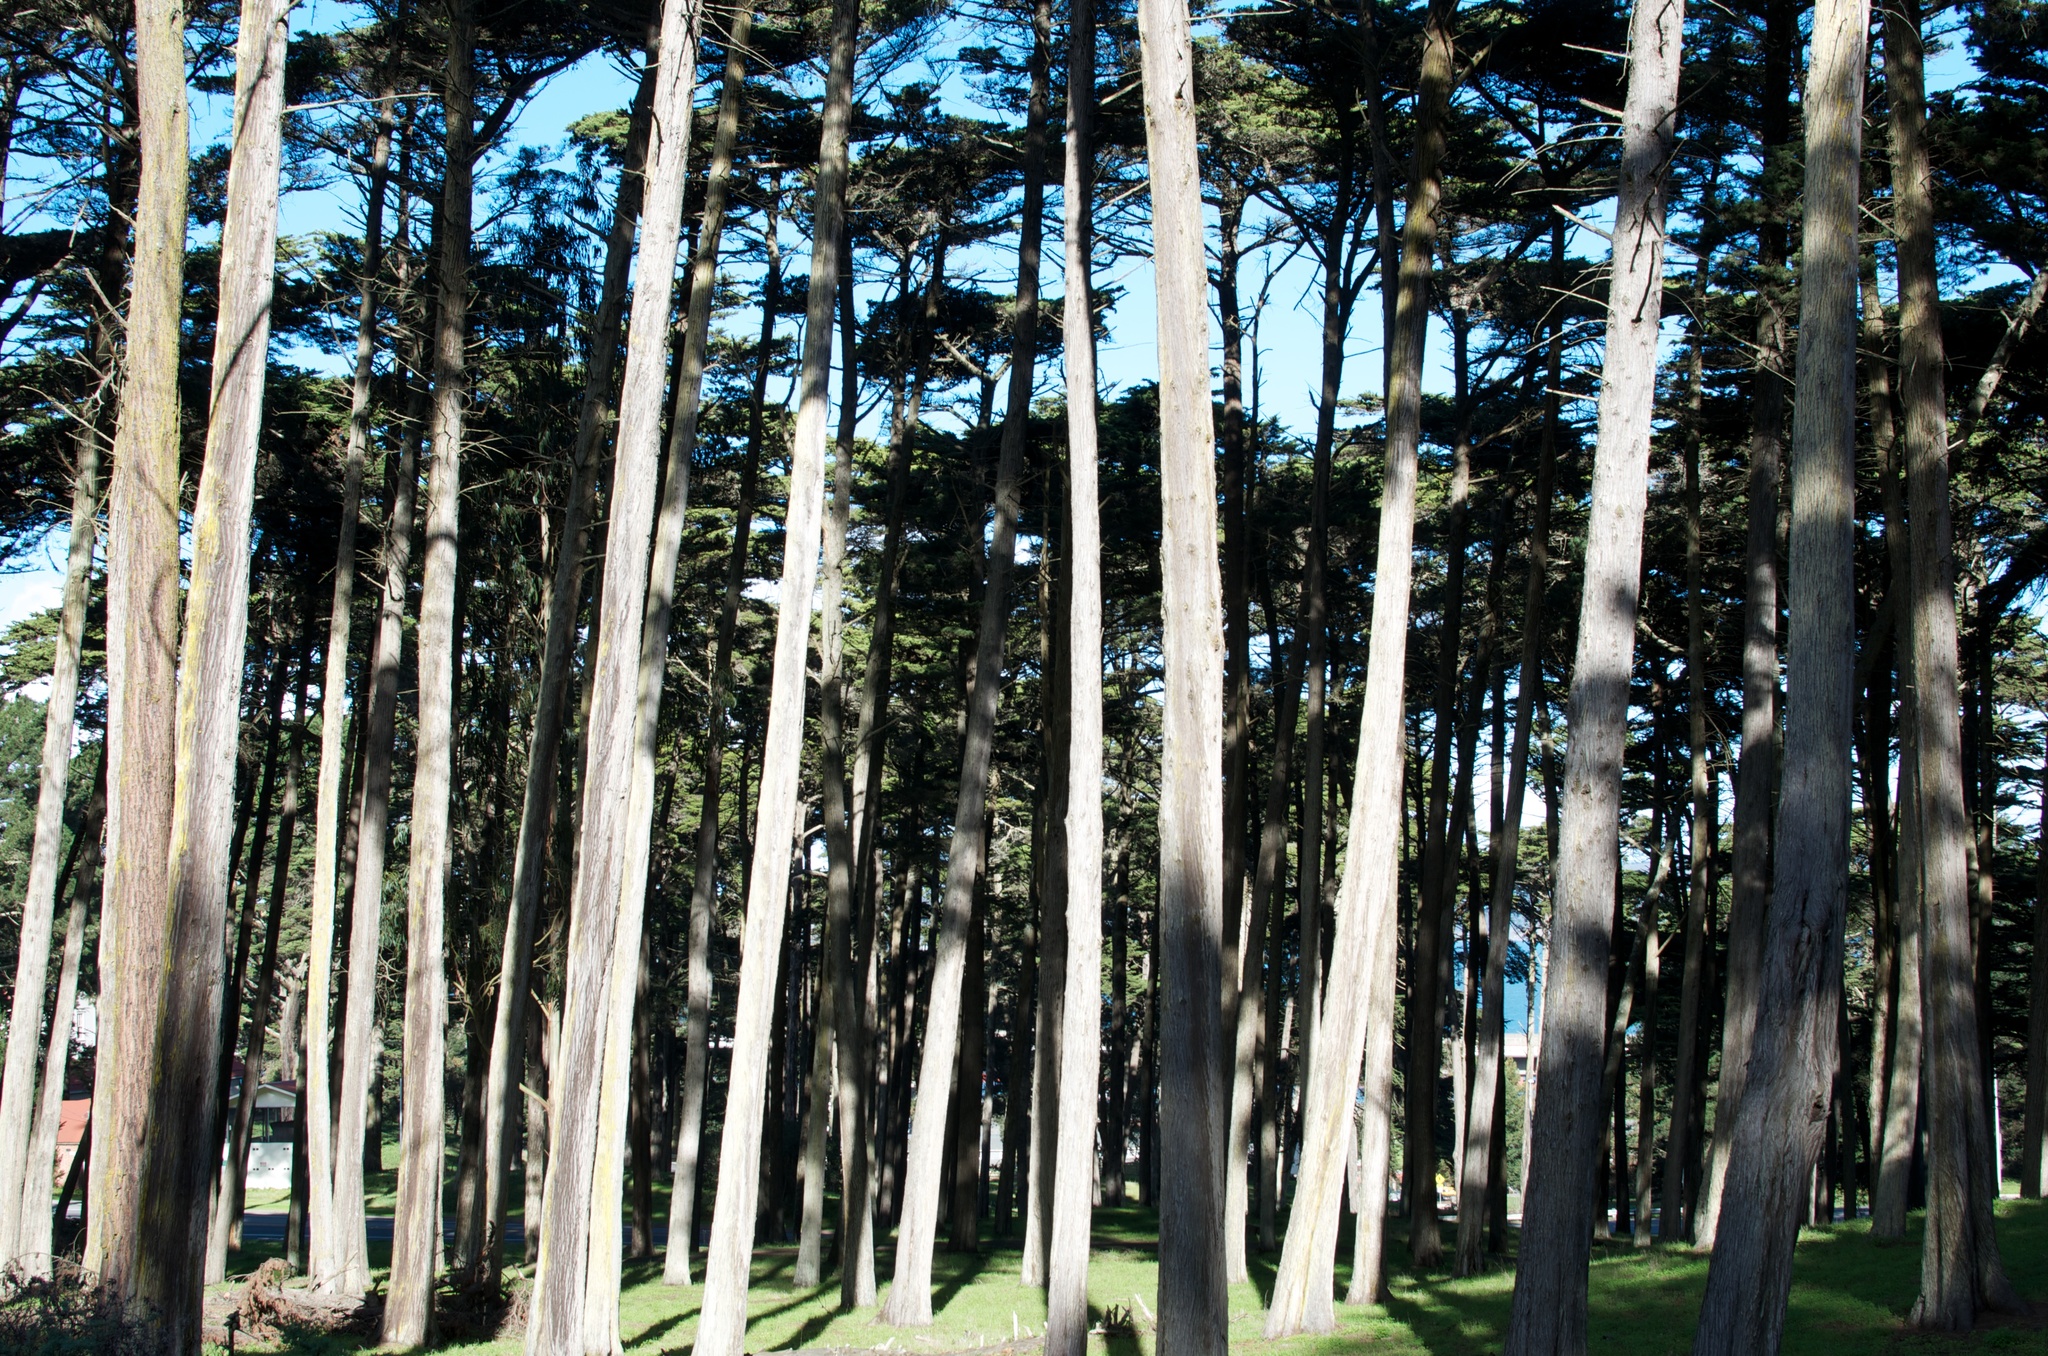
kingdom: Plantae
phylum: Tracheophyta
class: Pinopsida
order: Pinales
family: Cupressaceae
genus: Cupressus
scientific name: Cupressus macrocarpa
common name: Monterey cypress
